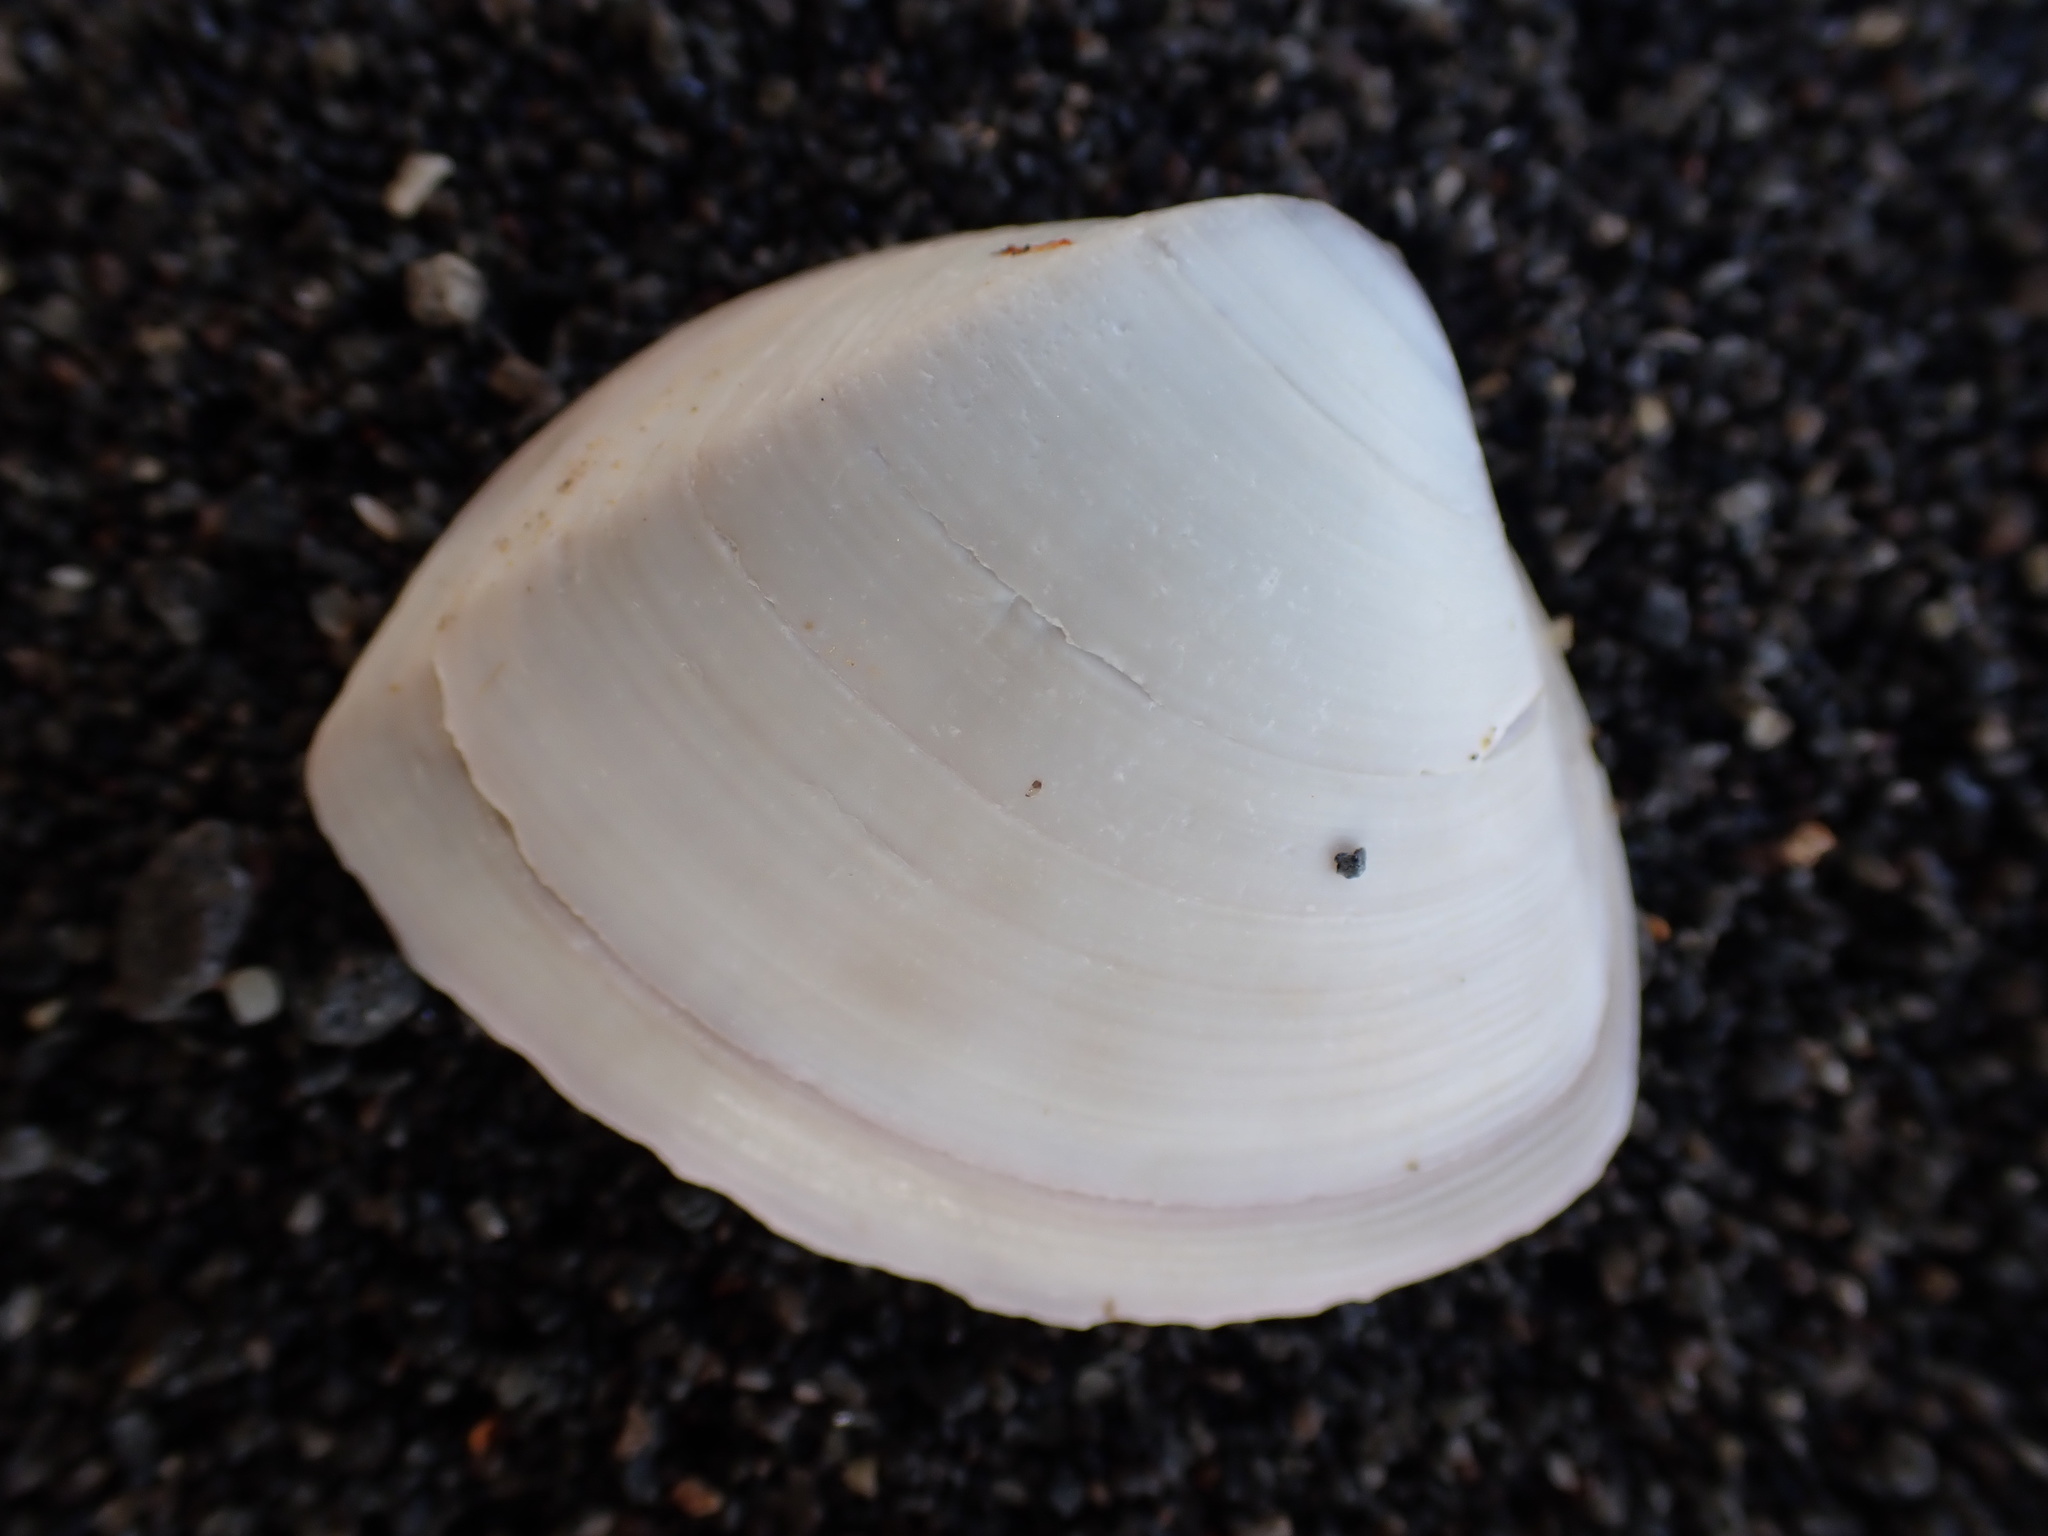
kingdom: Animalia
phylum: Mollusca
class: Bivalvia
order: Venerida
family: Mactridae
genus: Crassula
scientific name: Crassula aequilatera
